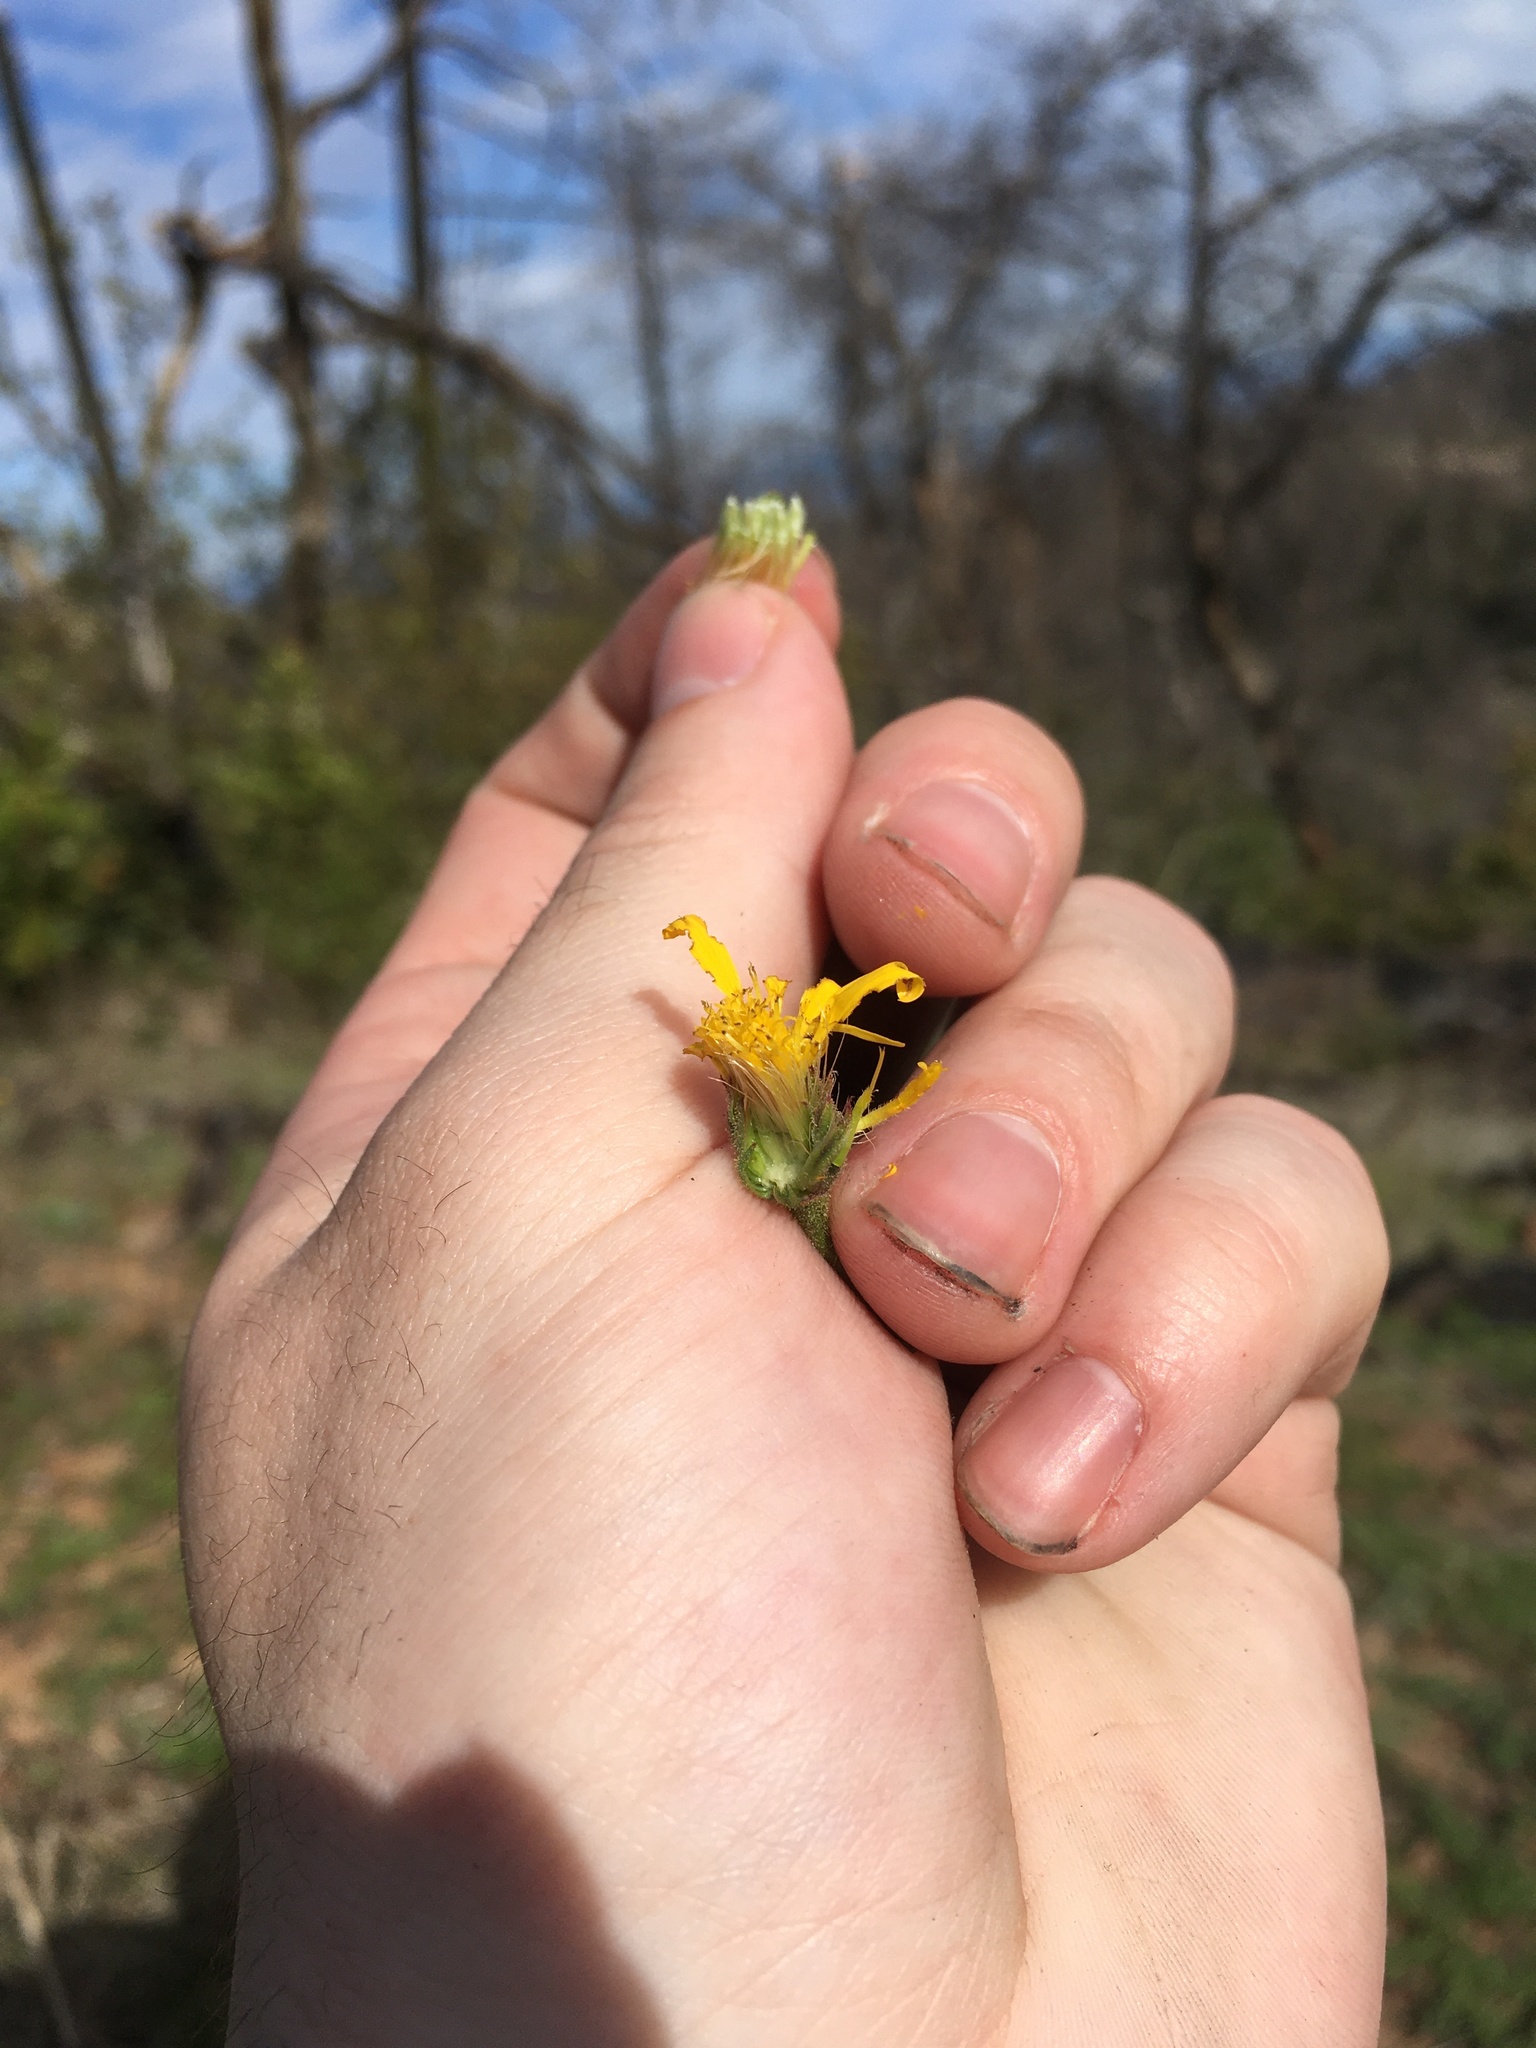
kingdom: Plantae
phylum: Tracheophyta
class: Magnoliopsida
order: Asterales
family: Asteraceae
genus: Heterotheca
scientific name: Heterotheca grandiflora
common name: Telegraphweed
